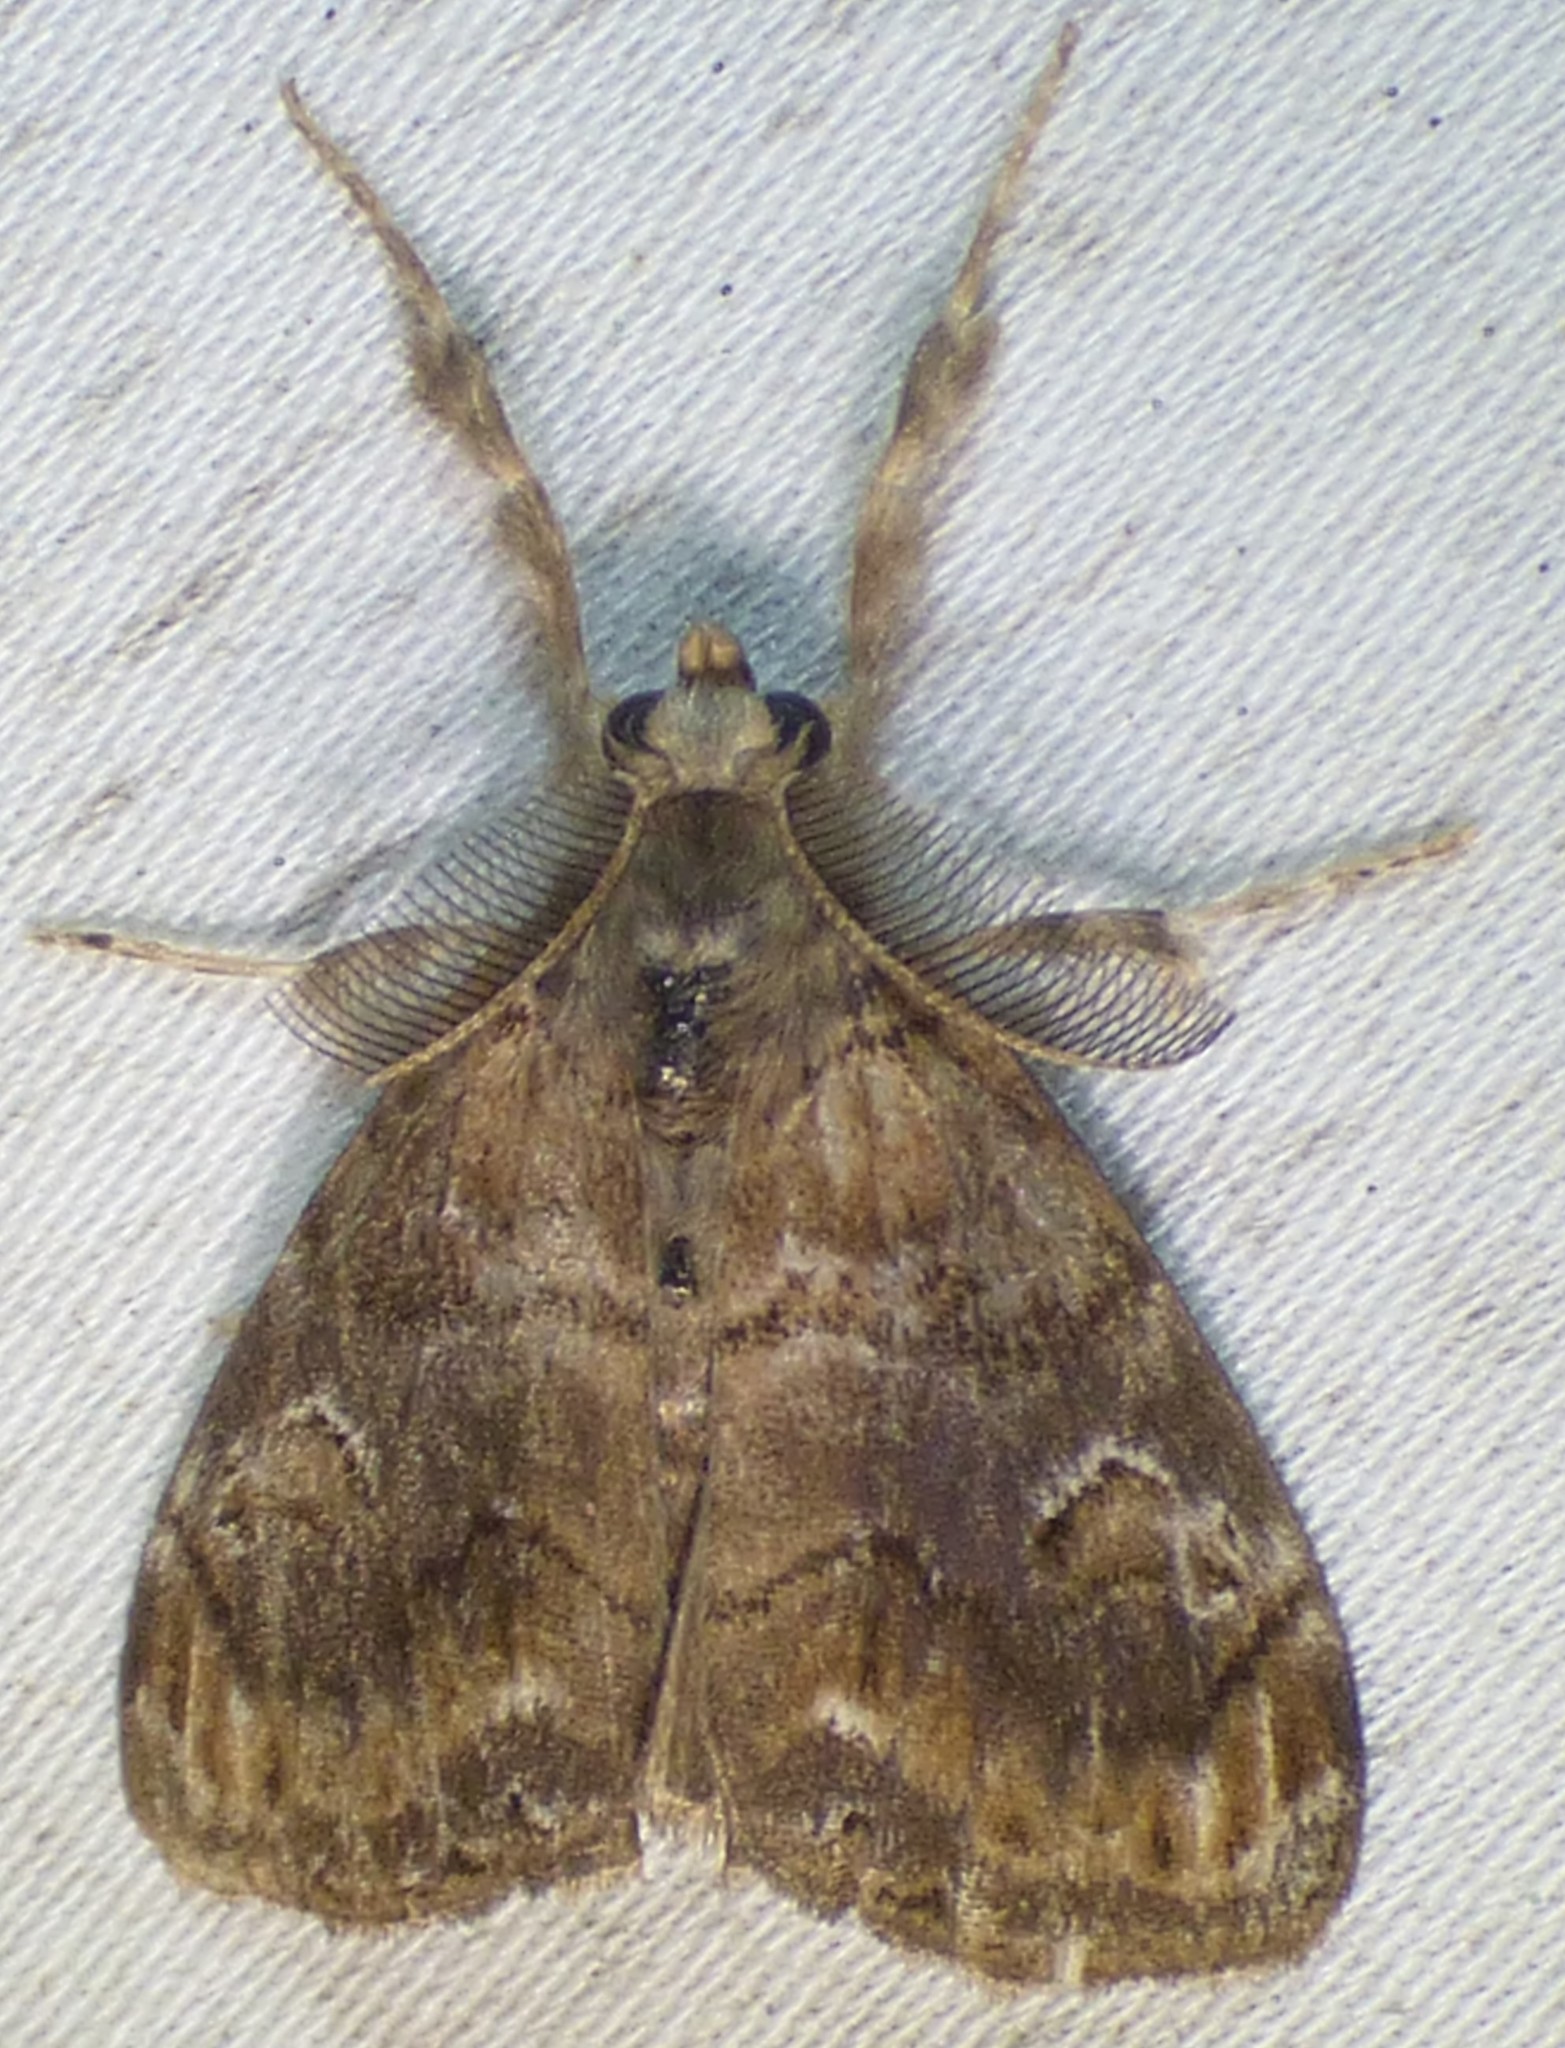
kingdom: Animalia
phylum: Arthropoda
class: Insecta
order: Lepidoptera
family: Erebidae
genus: Orgyia
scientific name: Orgyia definita
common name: Definite tussock moth
